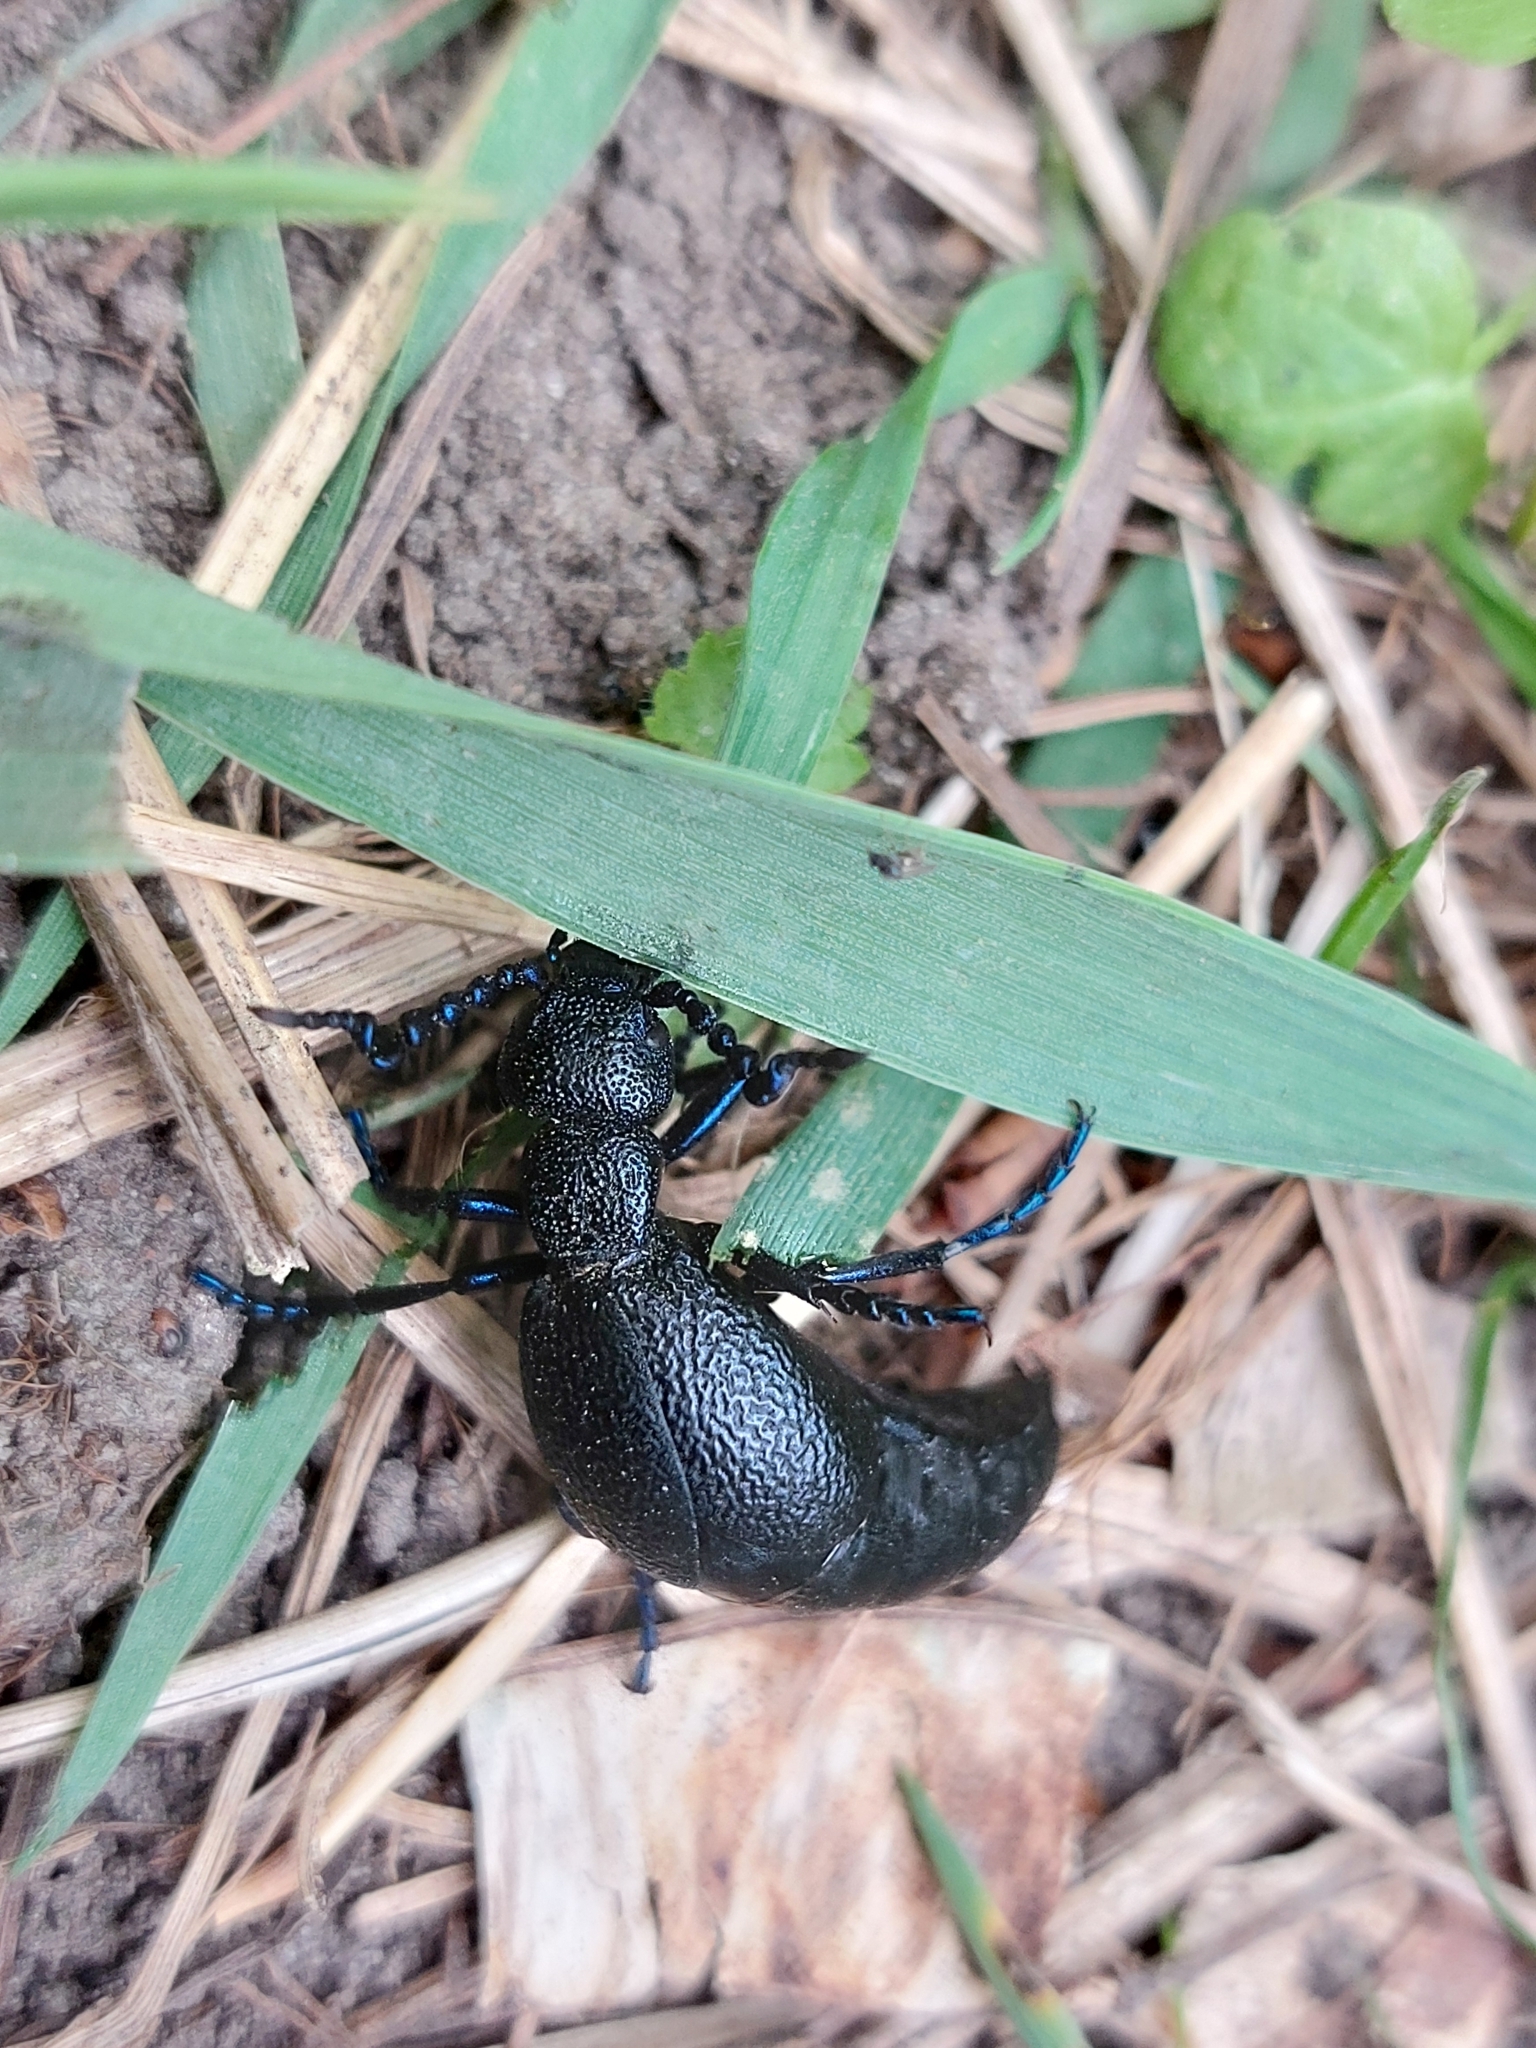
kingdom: Animalia
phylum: Arthropoda
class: Insecta
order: Coleoptera
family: Meloidae
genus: Meloe
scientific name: Meloe proscarabaeus
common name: Black oil-beetle
